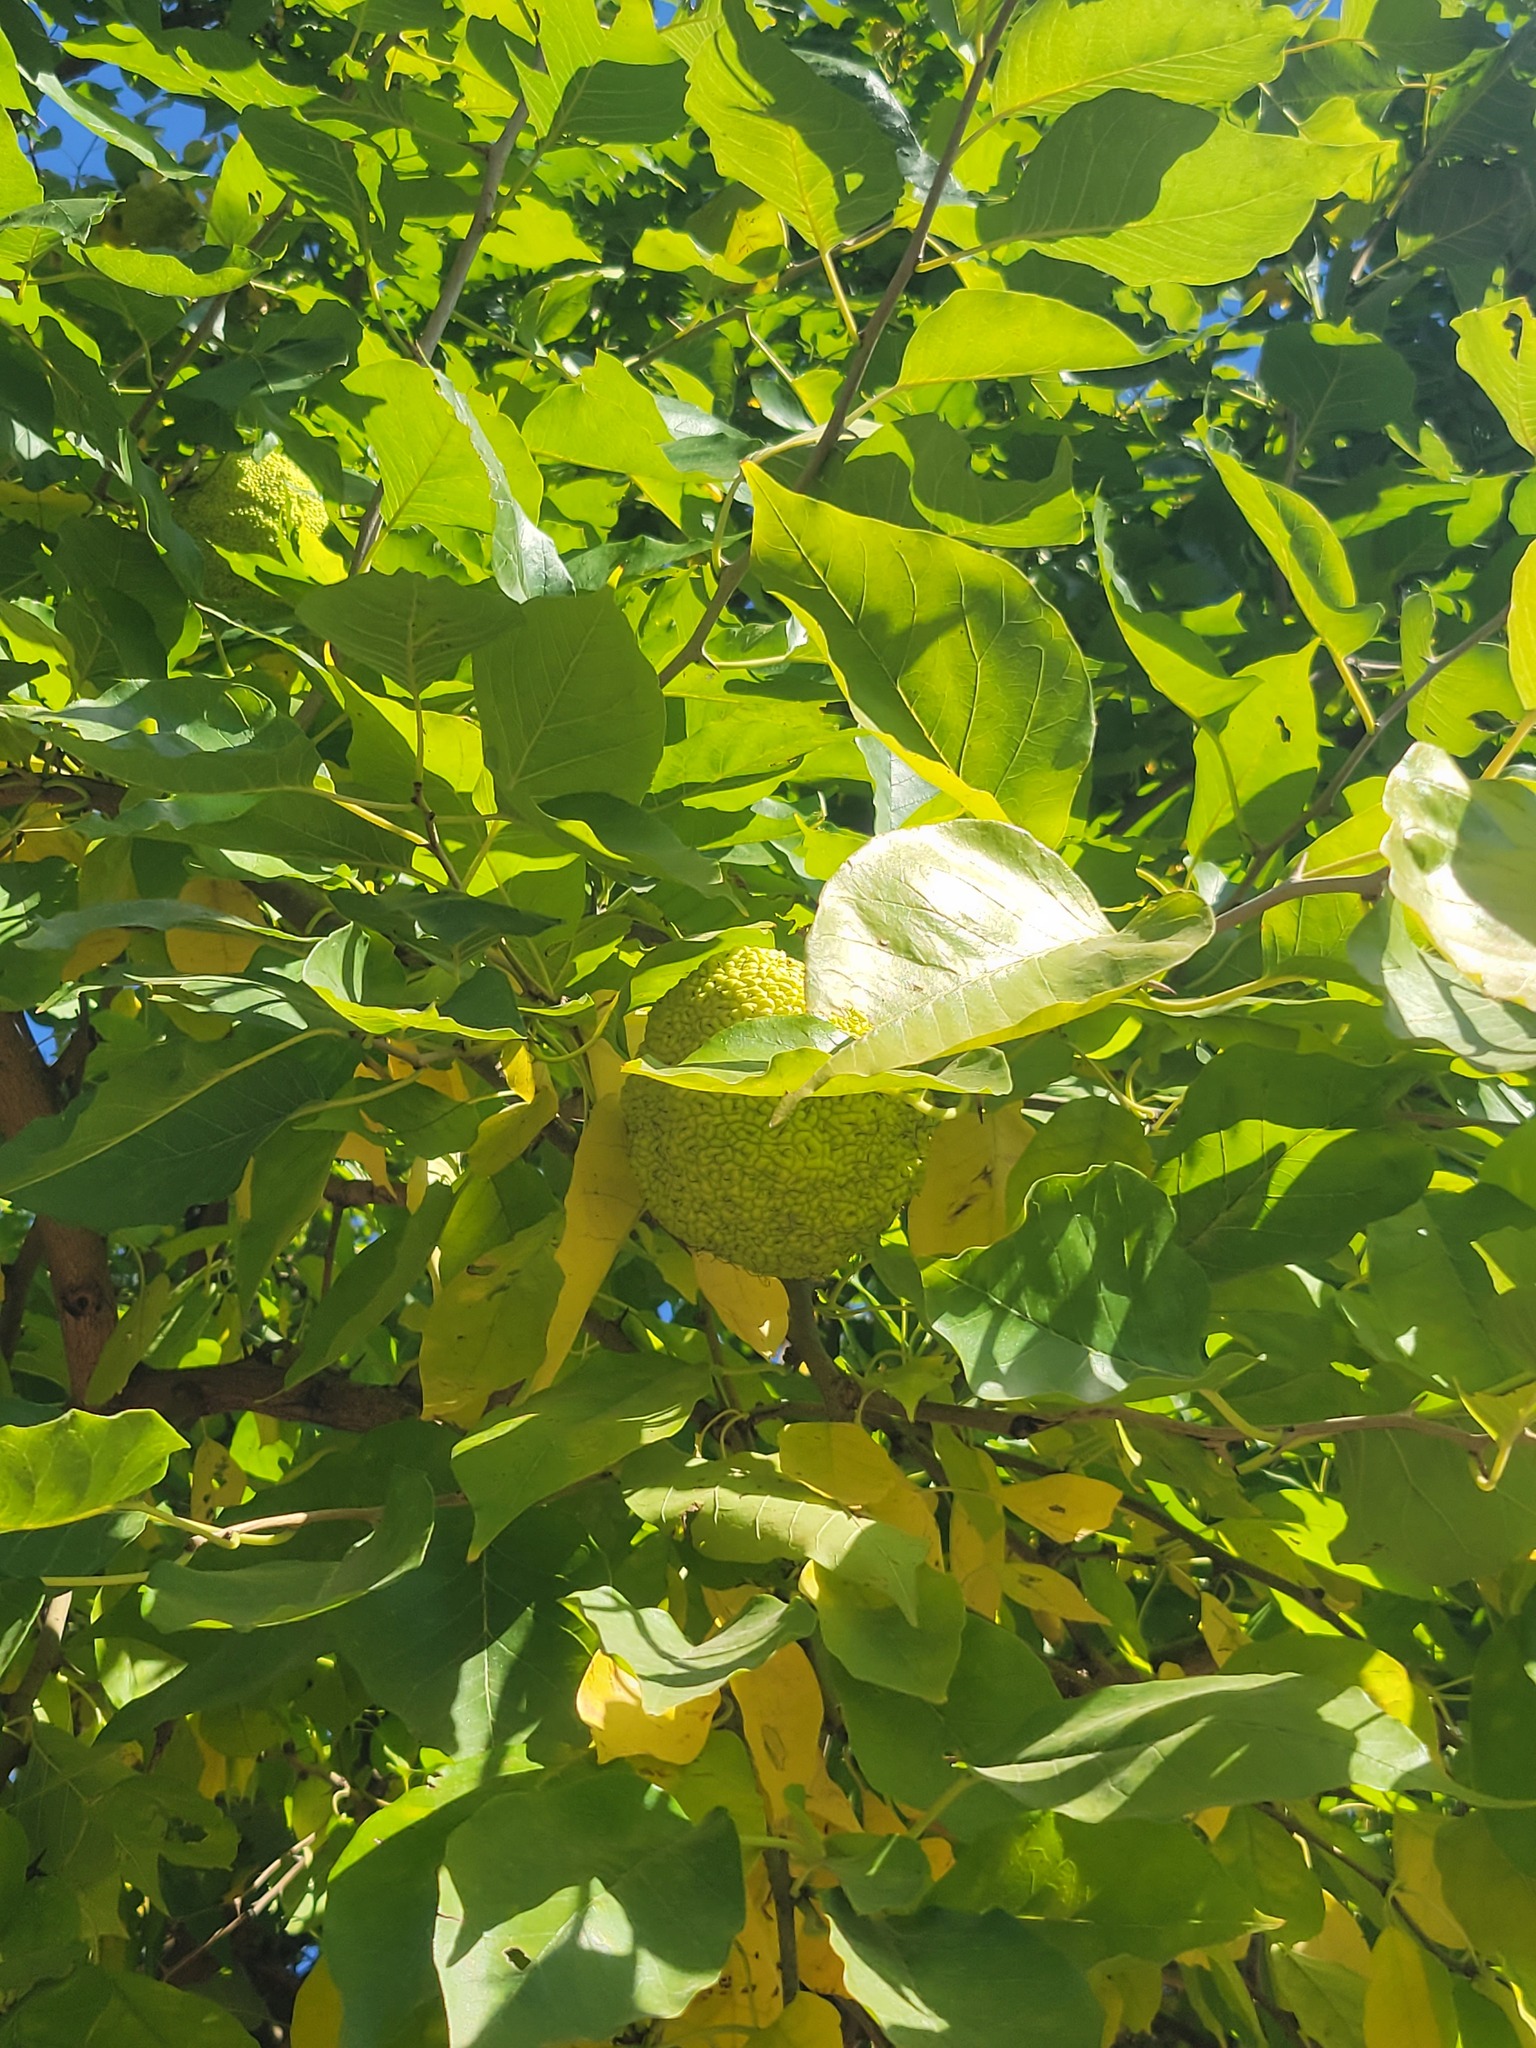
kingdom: Plantae
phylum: Tracheophyta
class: Magnoliopsida
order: Rosales
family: Moraceae
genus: Maclura
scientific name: Maclura pomifera
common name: Osage-orange
